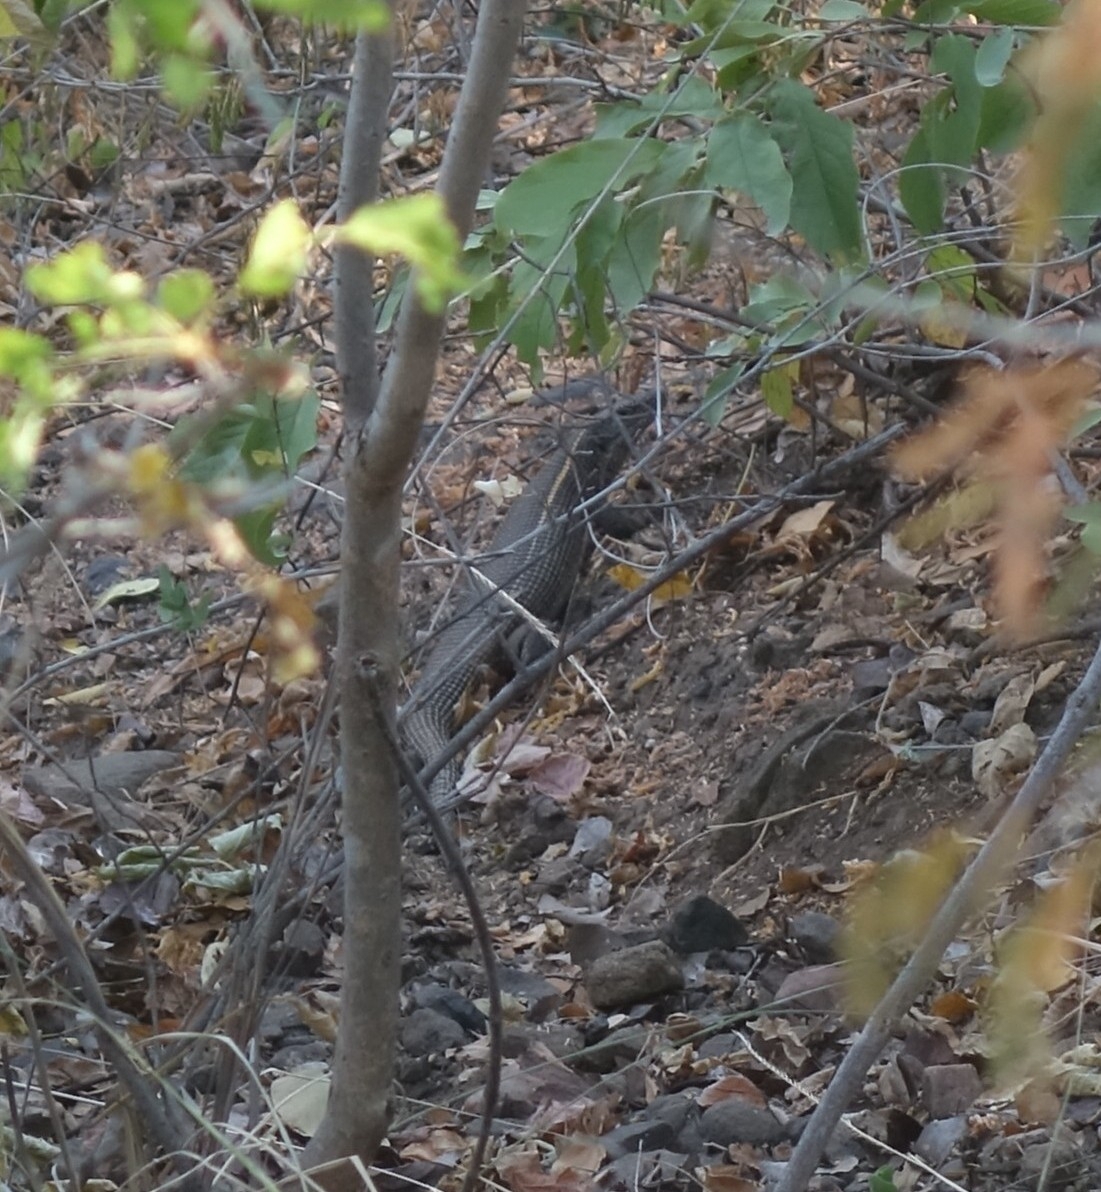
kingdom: Animalia
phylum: Chordata
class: Squamata
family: Gerrhosauridae
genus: Matobosaurus
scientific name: Matobosaurus validus
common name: Common giant plated lizard
